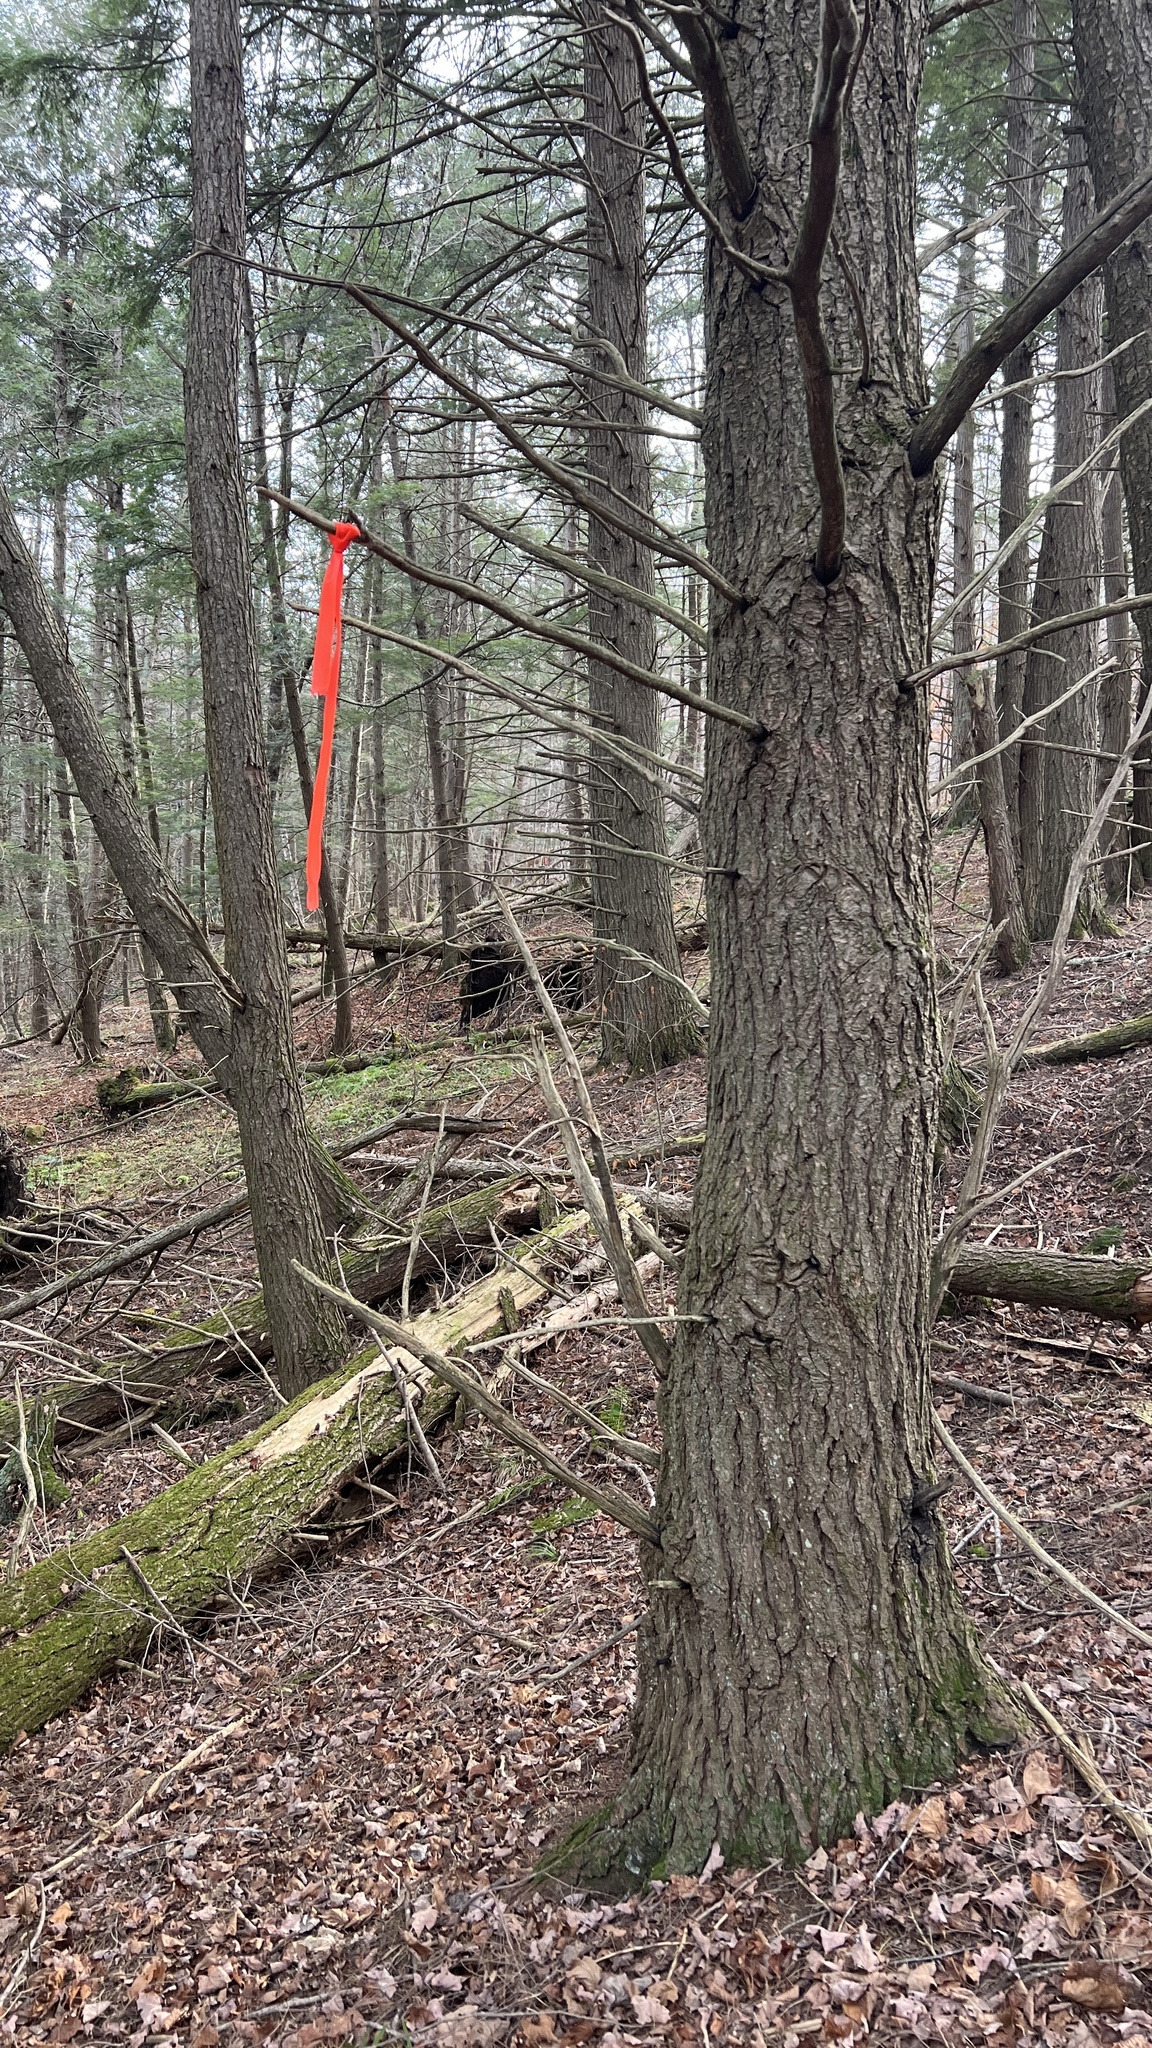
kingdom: Plantae
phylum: Tracheophyta
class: Pinopsida
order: Pinales
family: Pinaceae
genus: Tsuga
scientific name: Tsuga canadensis
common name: Eastern hemlock
